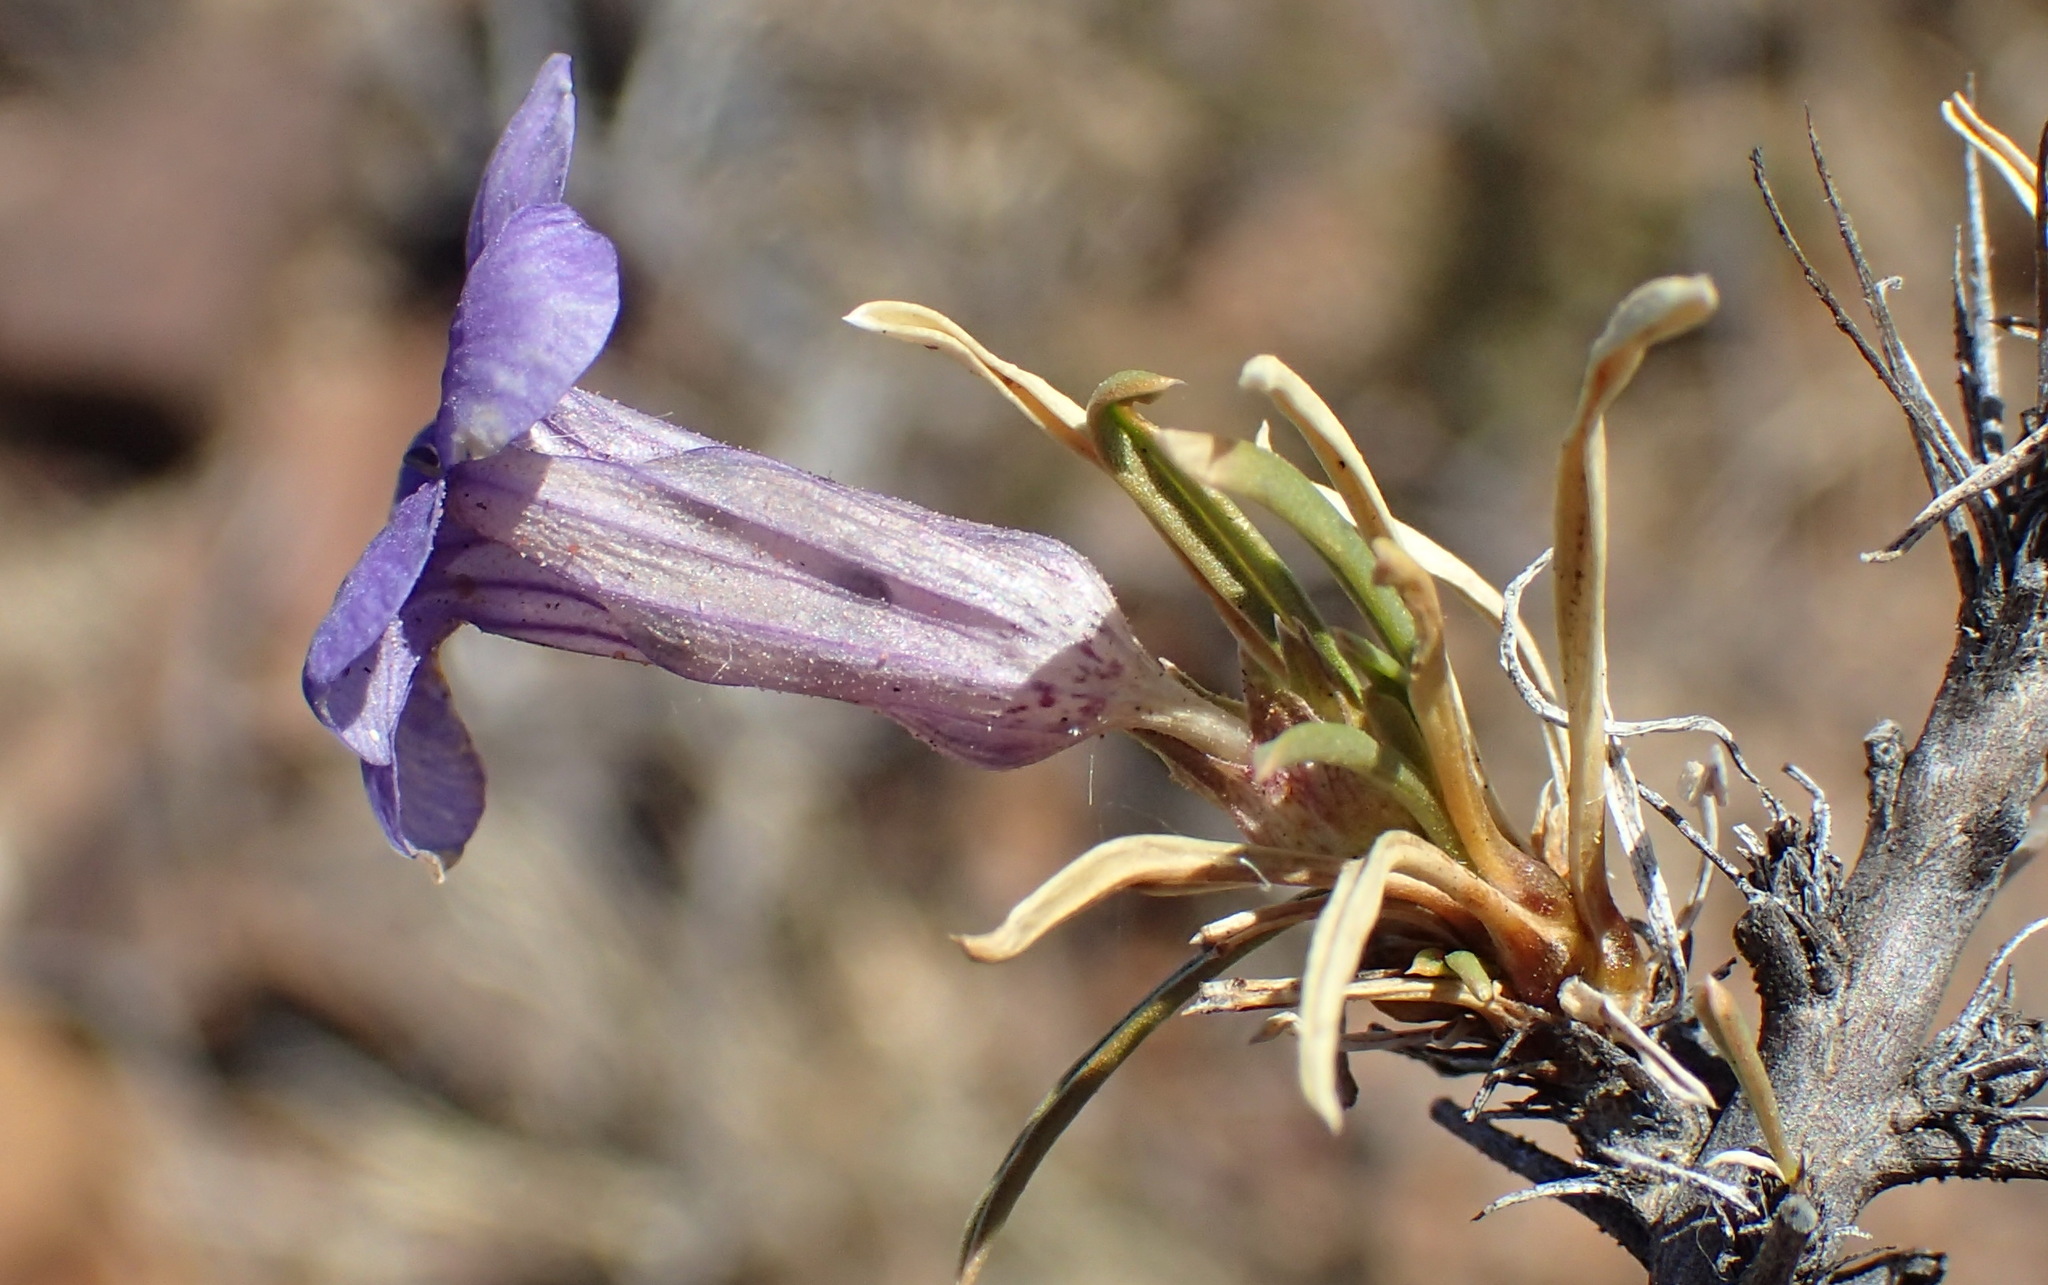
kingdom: Plantae
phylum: Tracheophyta
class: Magnoliopsida
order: Lamiales
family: Scrophulariaceae
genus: Aptosimum
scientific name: Aptosimum spinescens
